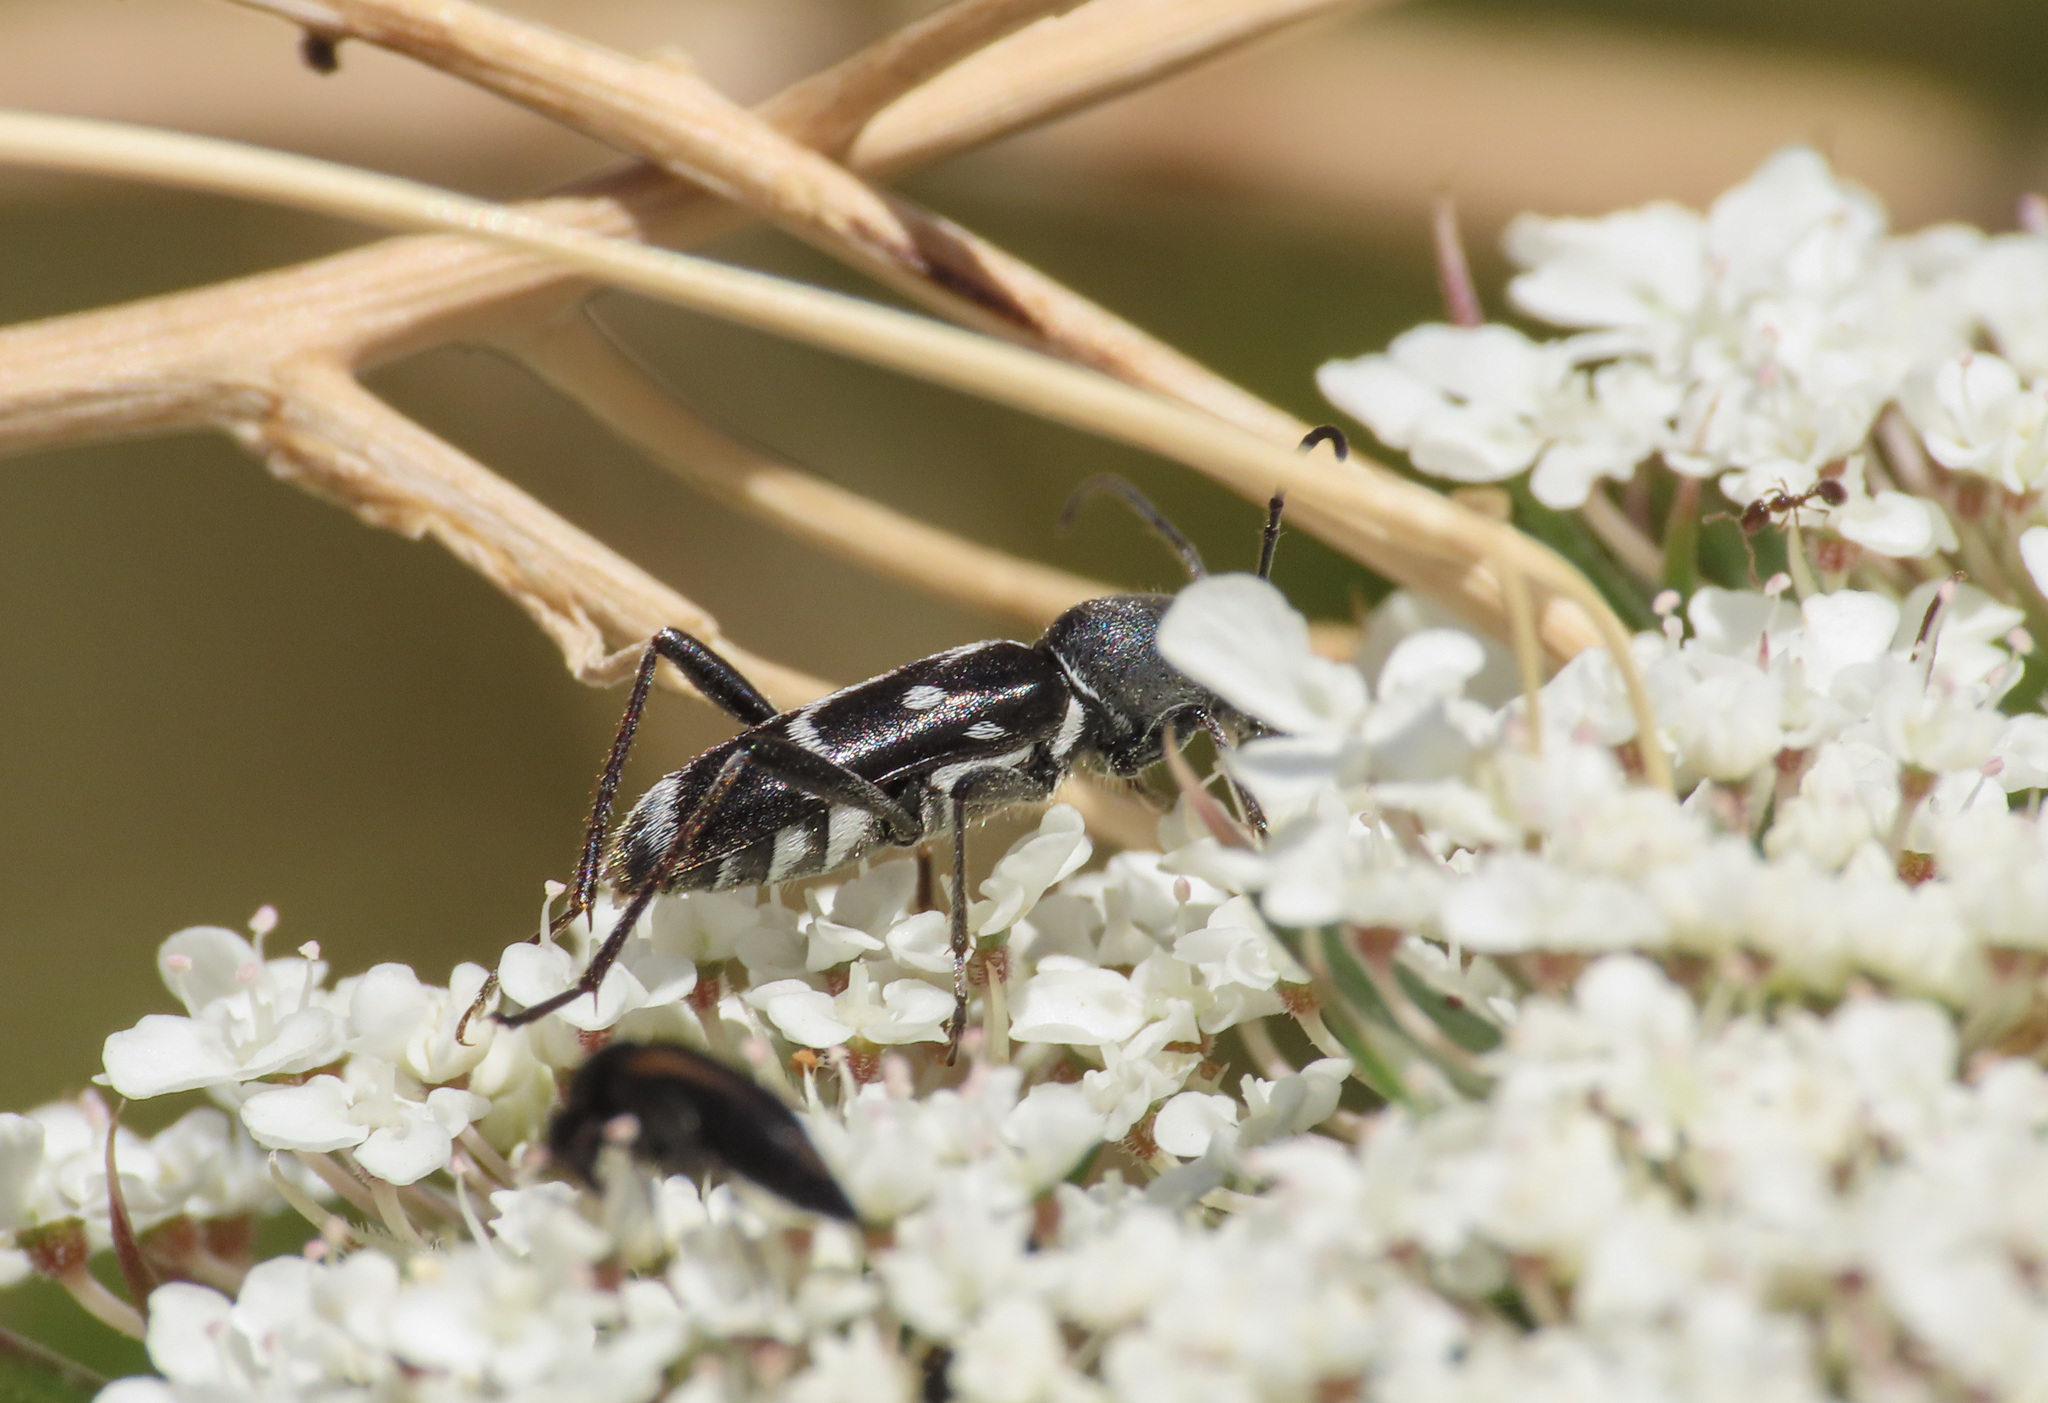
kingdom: Animalia
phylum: Arthropoda
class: Insecta
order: Coleoptera
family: Cerambycidae
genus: Chlorophorus
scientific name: Chlorophorus sartor
